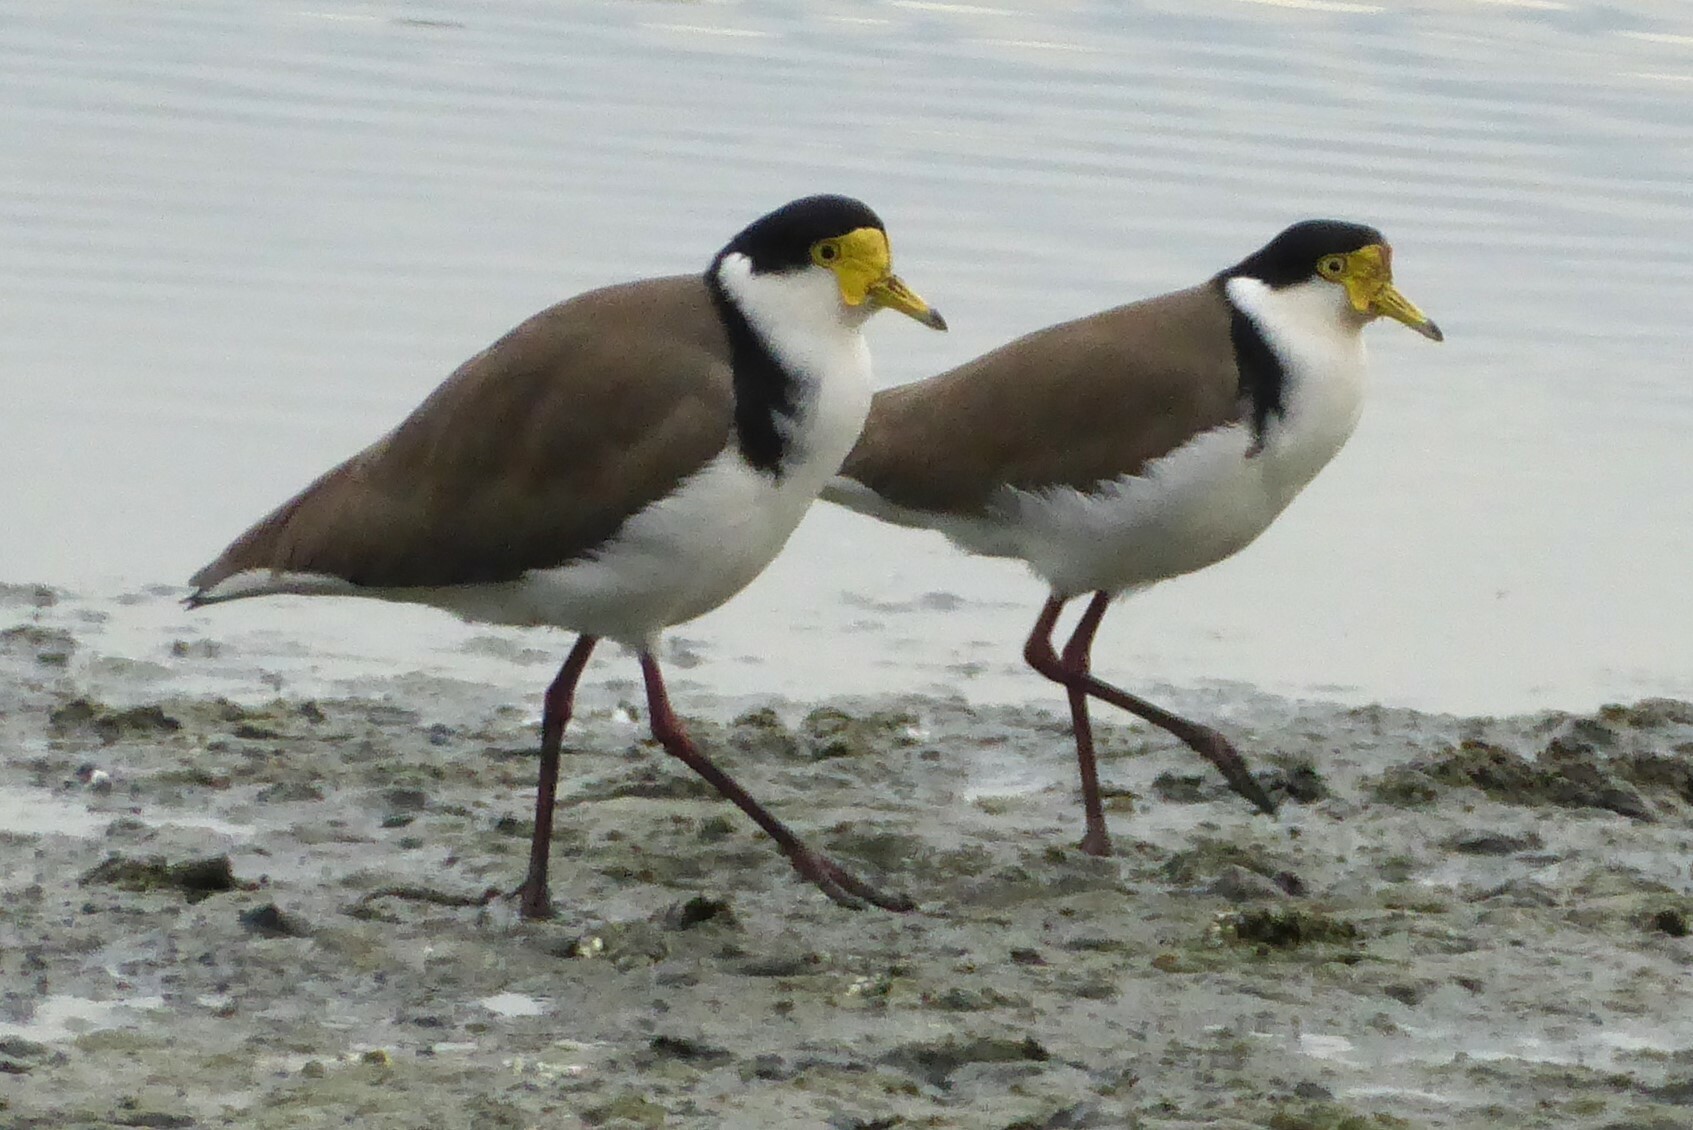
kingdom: Animalia
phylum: Chordata
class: Aves
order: Charadriiformes
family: Charadriidae
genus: Vanellus
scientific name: Vanellus miles
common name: Masked lapwing
